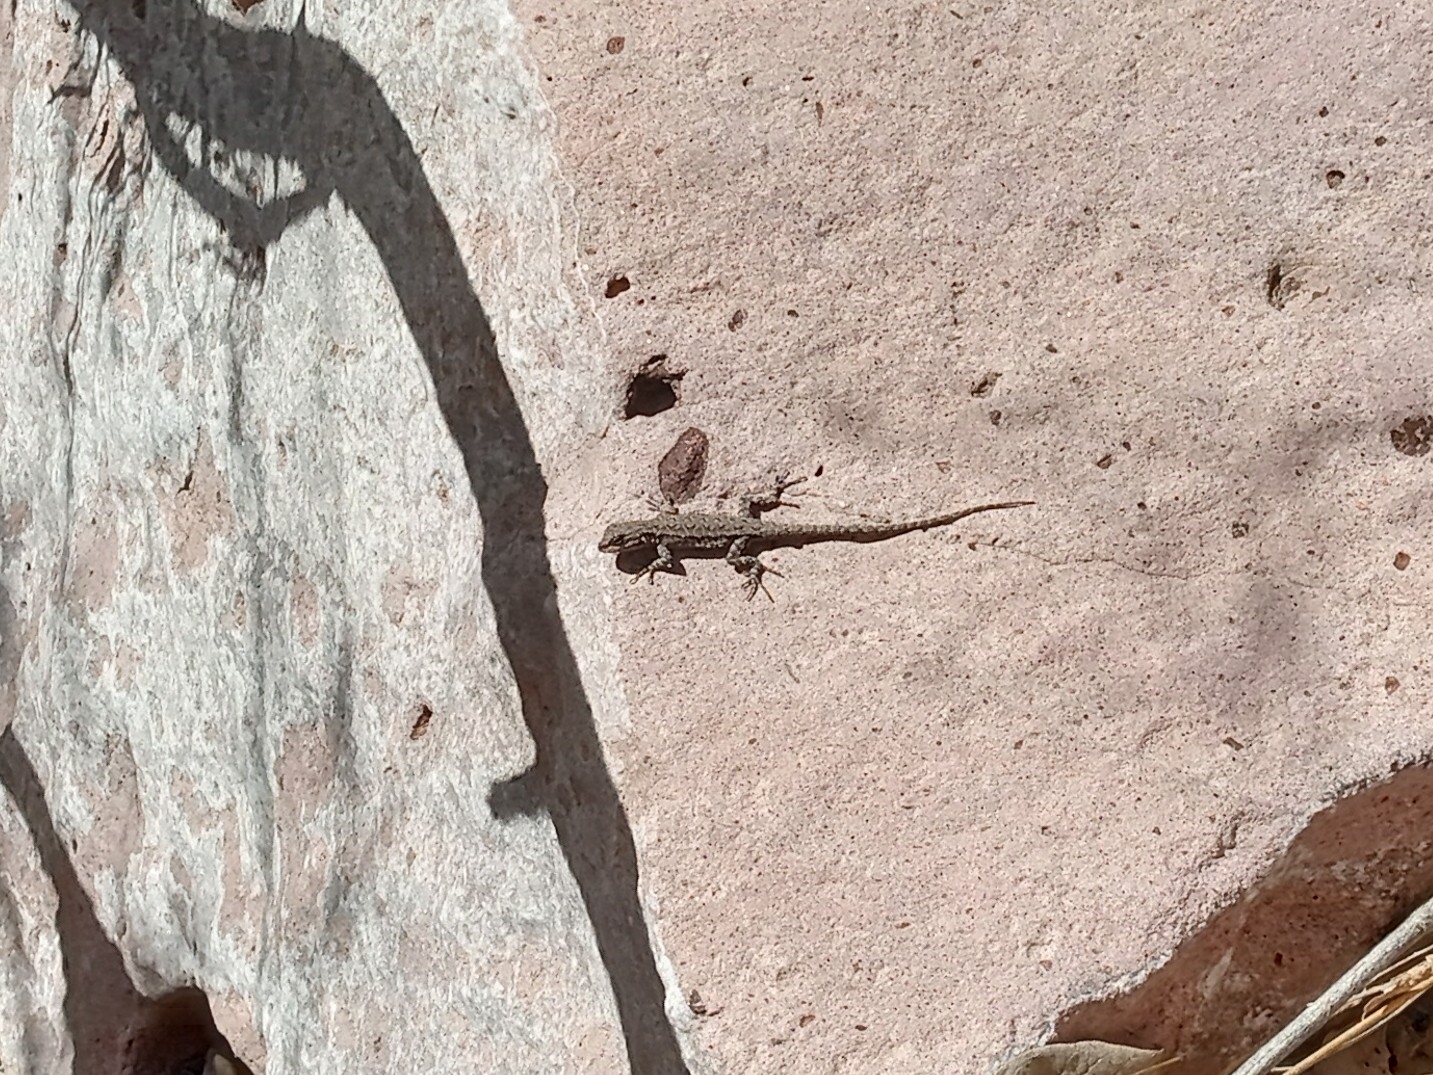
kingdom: Animalia
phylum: Chordata
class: Squamata
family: Phrynosomatidae
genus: Urosaurus
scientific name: Urosaurus ornatus
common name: Ornate tree lizard
